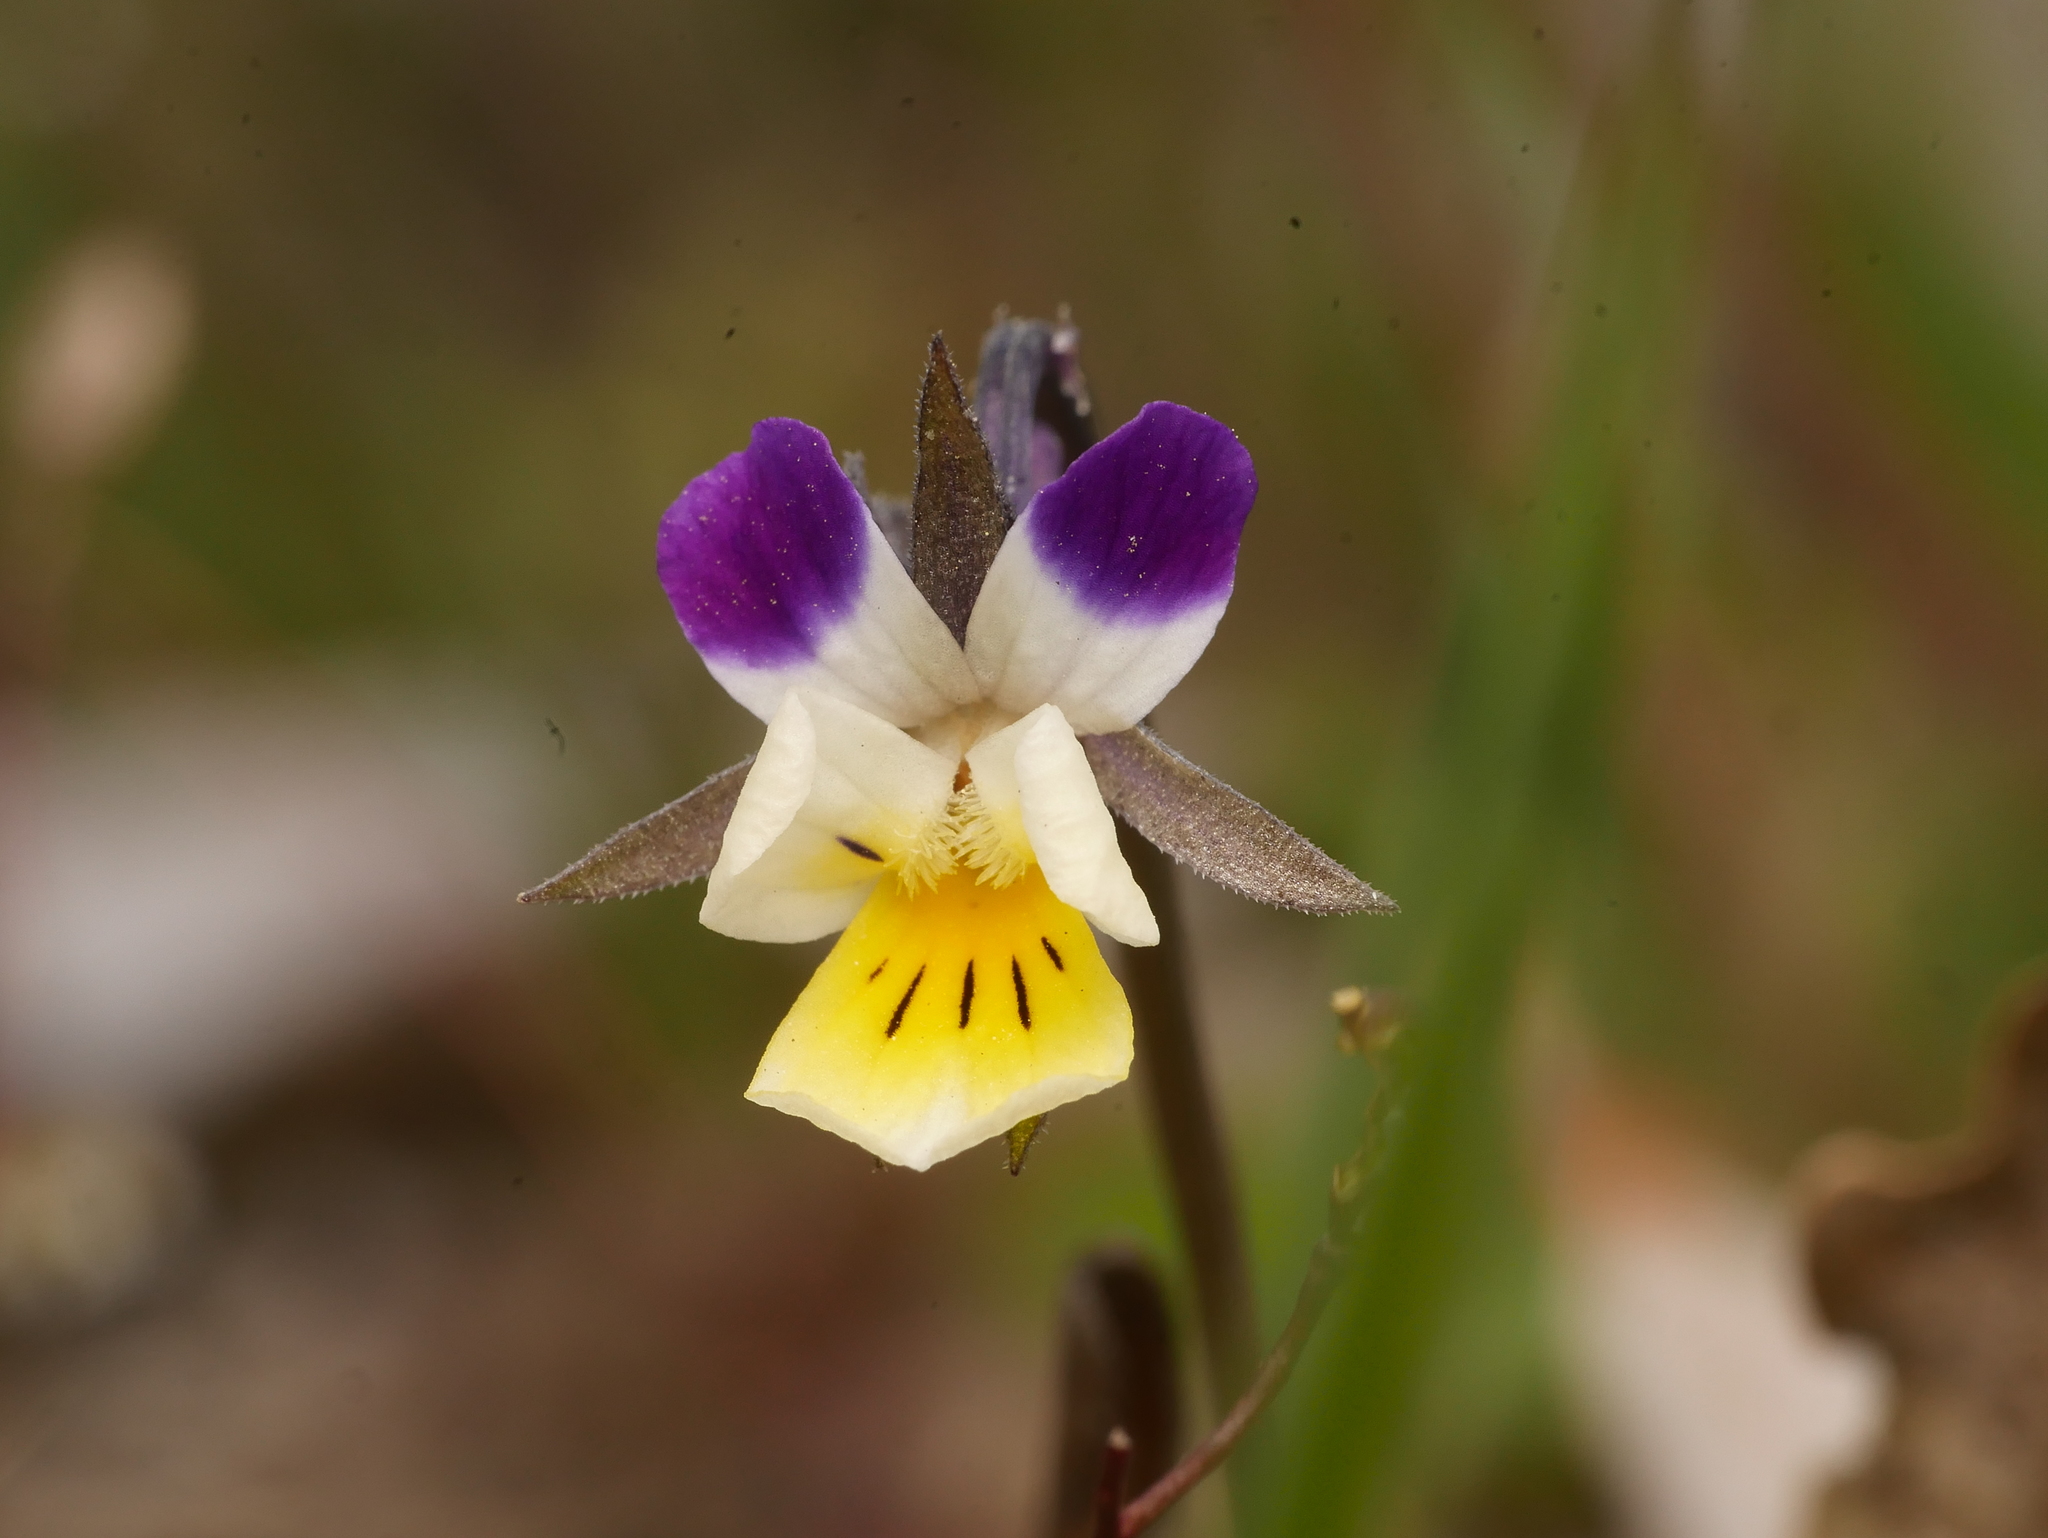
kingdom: Plantae
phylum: Tracheophyta
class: Magnoliopsida
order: Malpighiales
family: Violaceae
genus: Viola
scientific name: Viola arvensis
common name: Field pansy
